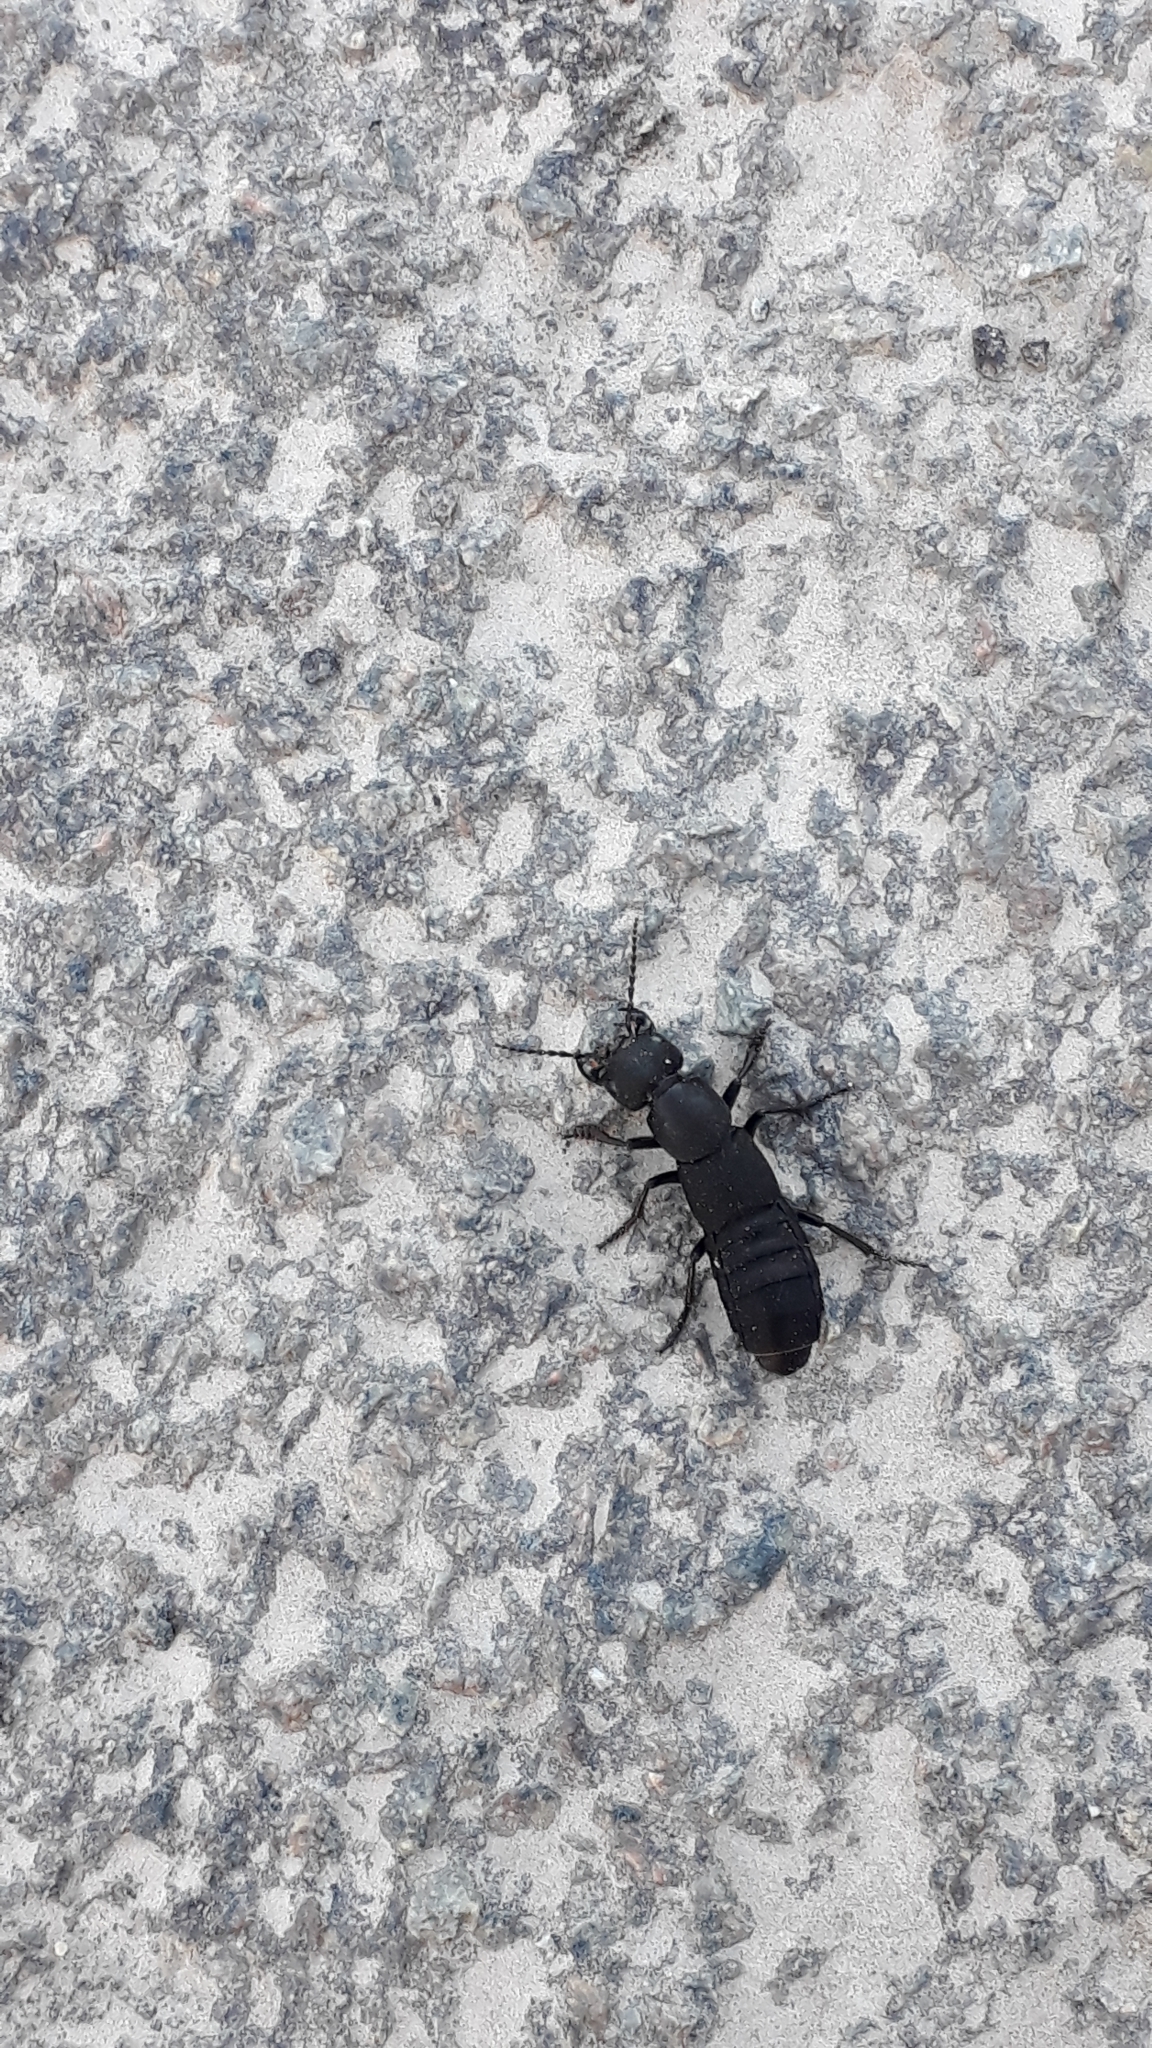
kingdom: Animalia
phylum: Arthropoda
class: Insecta
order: Coleoptera
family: Staphylinidae
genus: Ocypus
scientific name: Ocypus olens
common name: Devil's coach-horse
